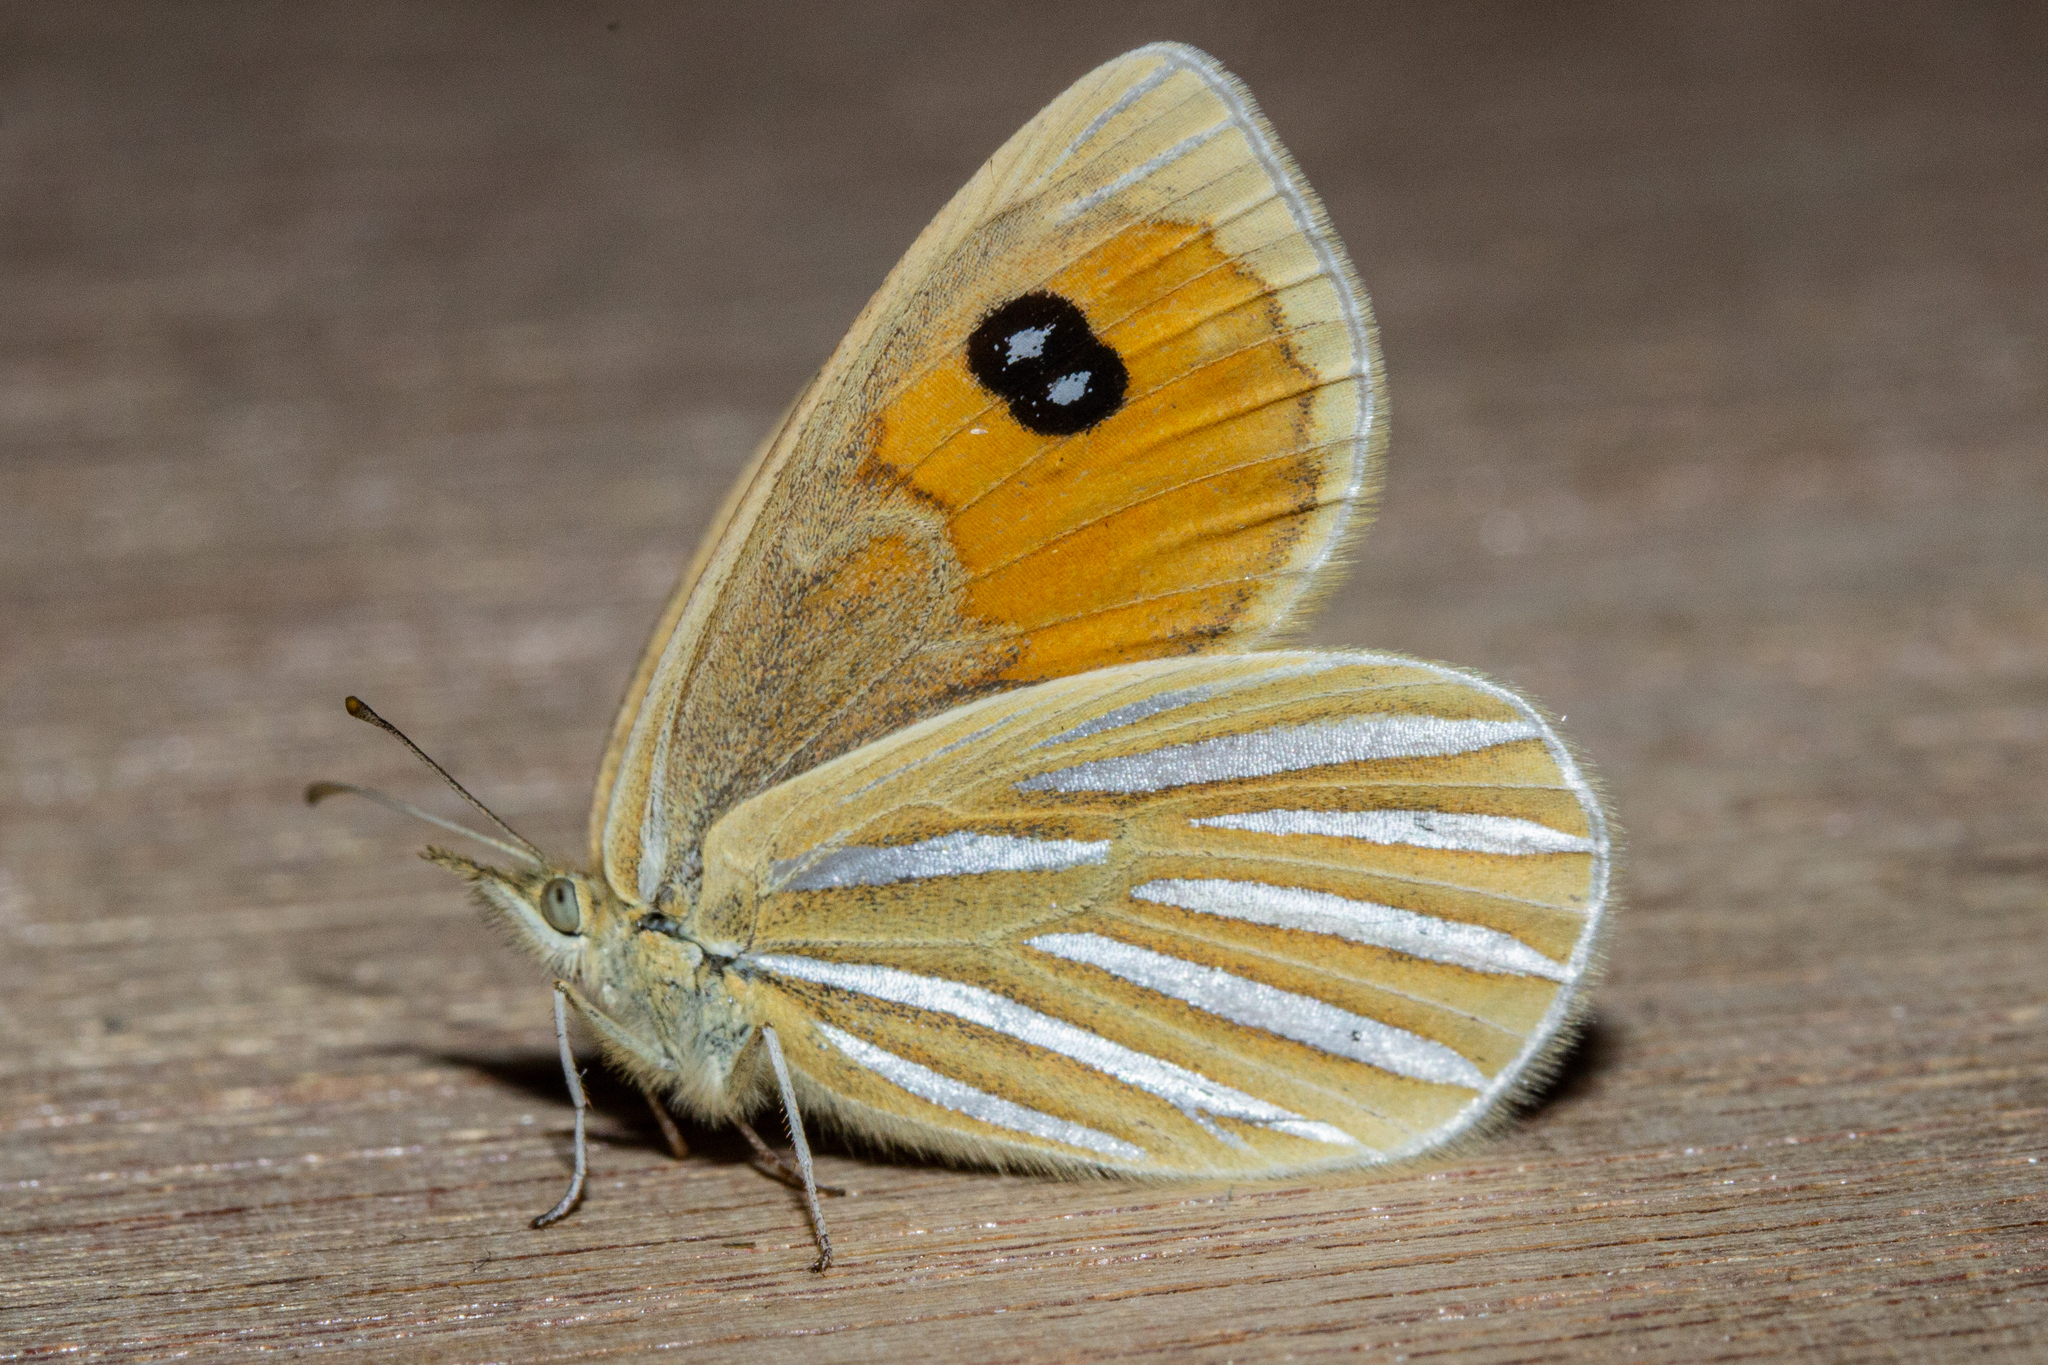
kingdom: Animalia
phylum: Arthropoda
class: Insecta
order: Lepidoptera
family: Nymphalidae
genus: Argyrophenga
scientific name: Argyrophenga antipodum
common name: Common tussock butterfly
